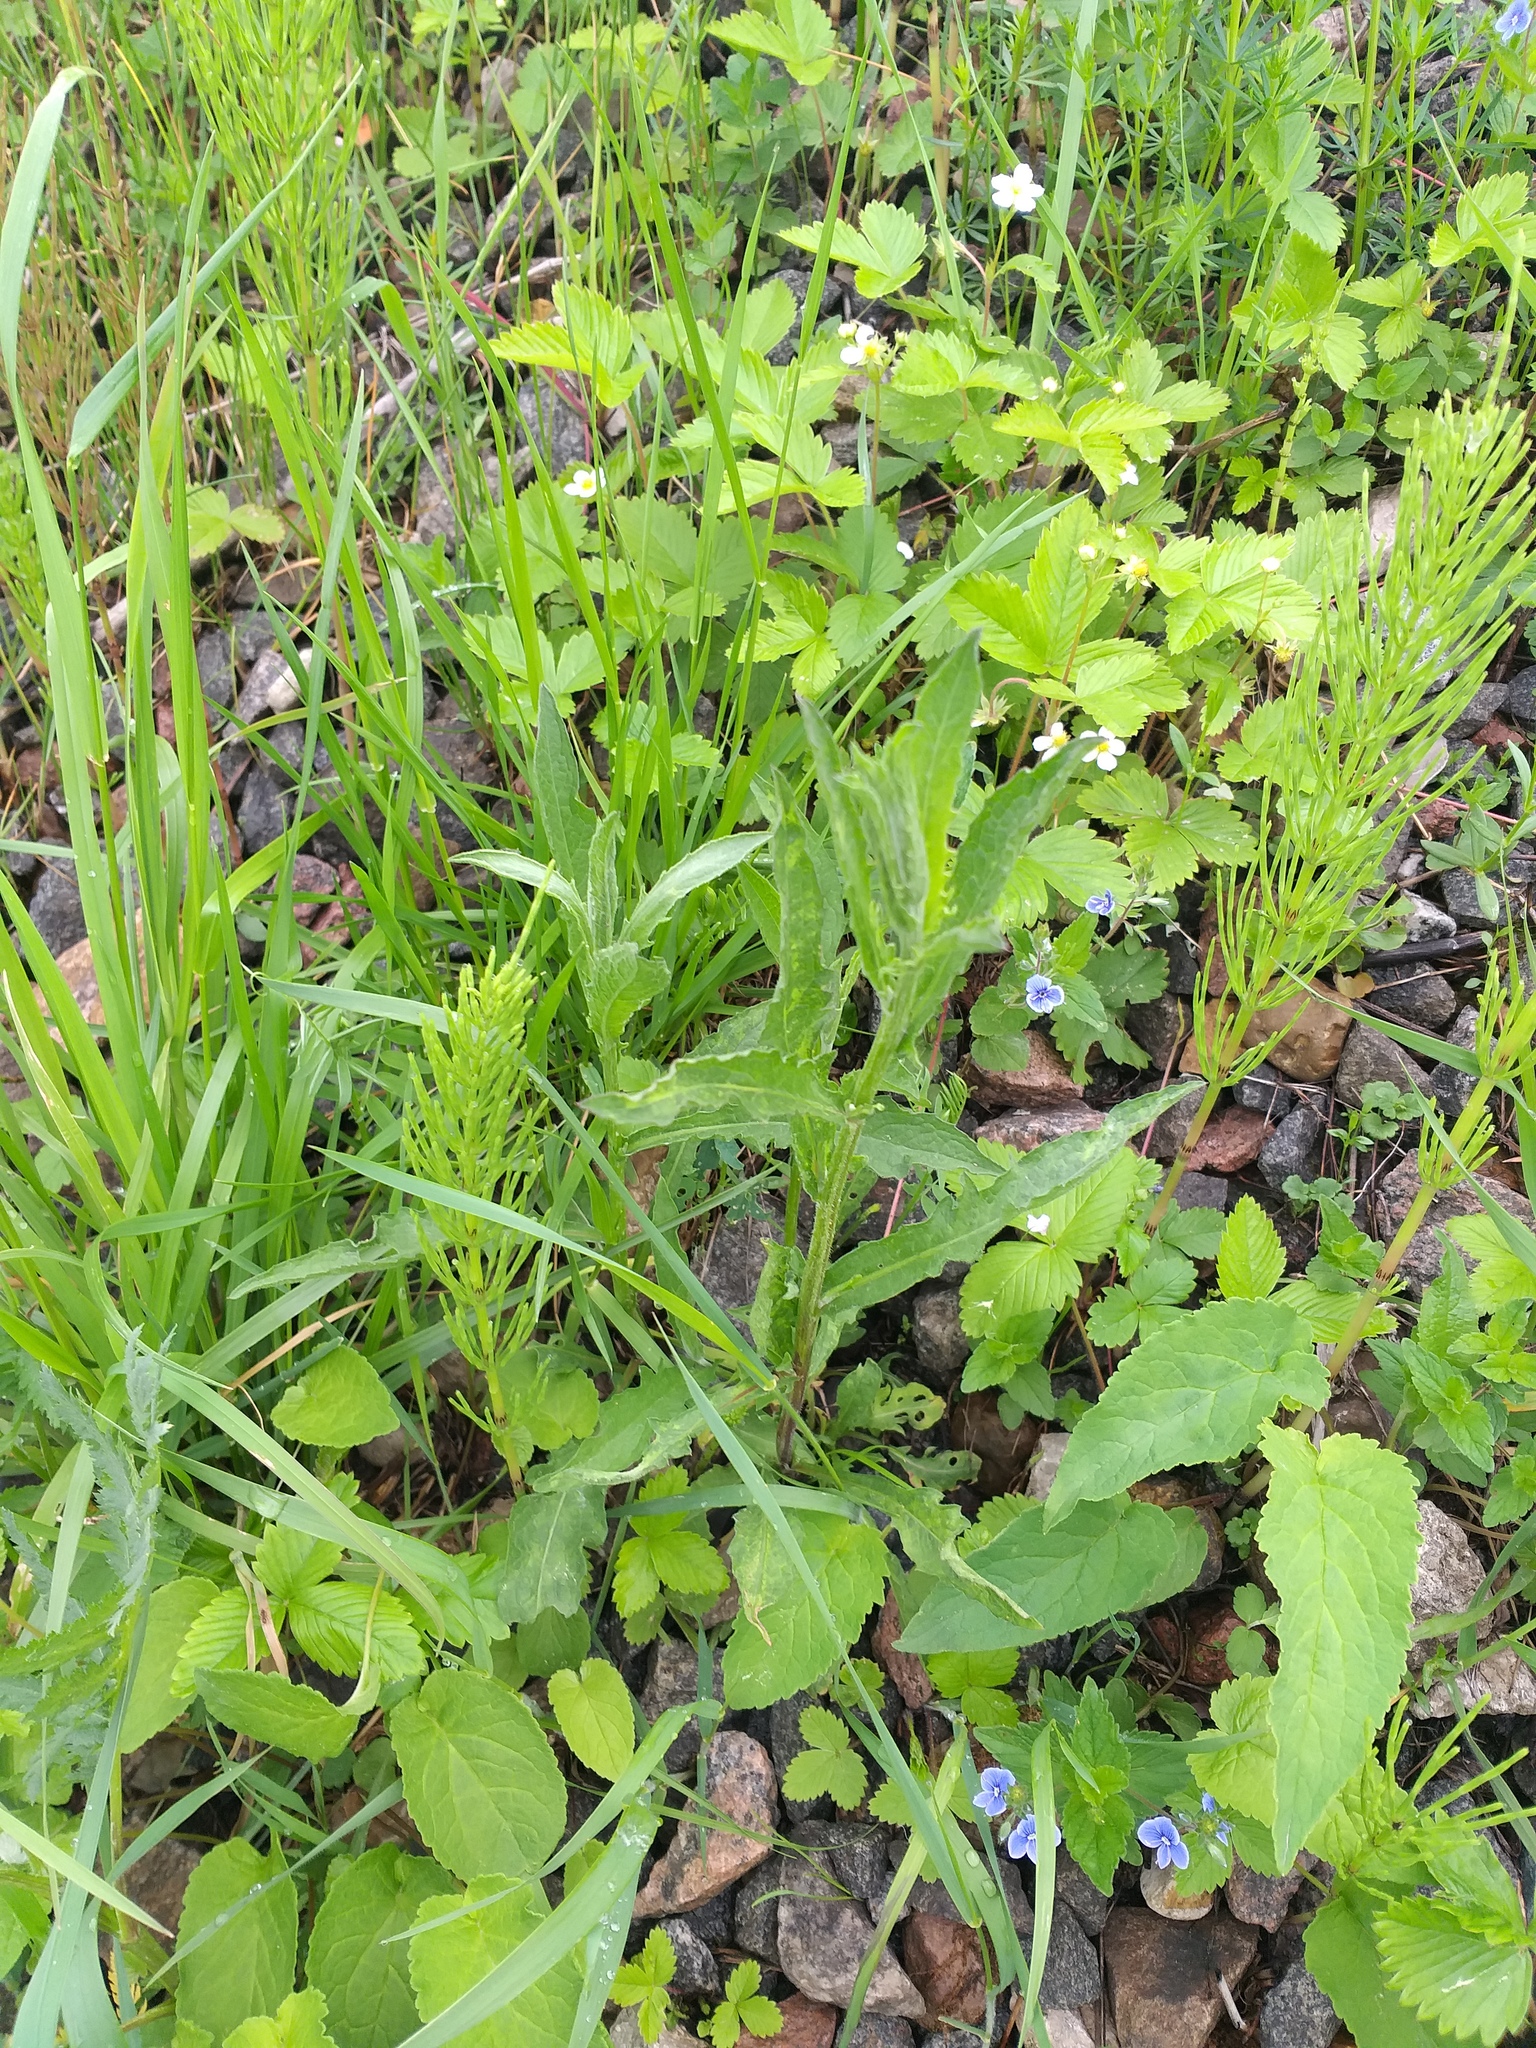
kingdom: Plantae
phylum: Tracheophyta
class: Magnoliopsida
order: Asterales
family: Asteraceae
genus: Centaurea
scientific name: Centaurea jacea
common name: Brown knapweed
